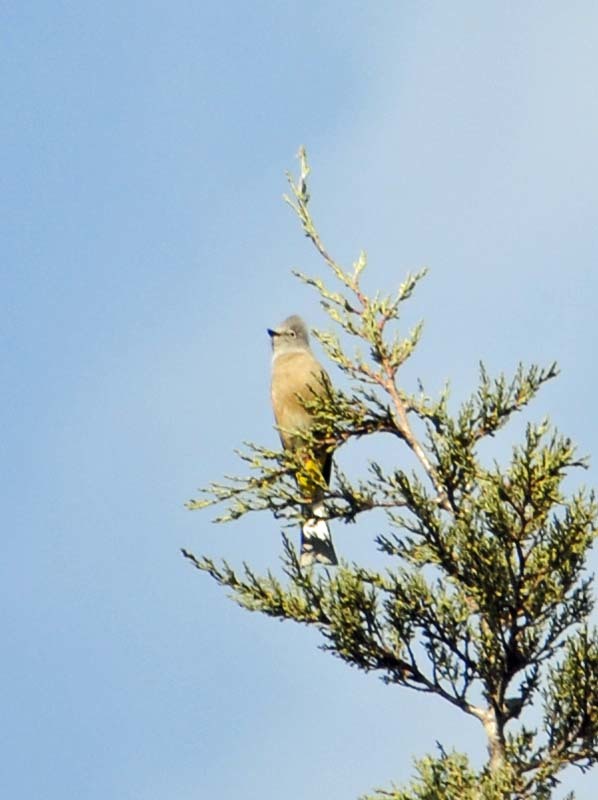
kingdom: Animalia
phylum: Chordata
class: Aves
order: Passeriformes
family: Ptilogonatidae
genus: Ptilogonys
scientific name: Ptilogonys cinereus
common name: Gray silky-flycatcher
